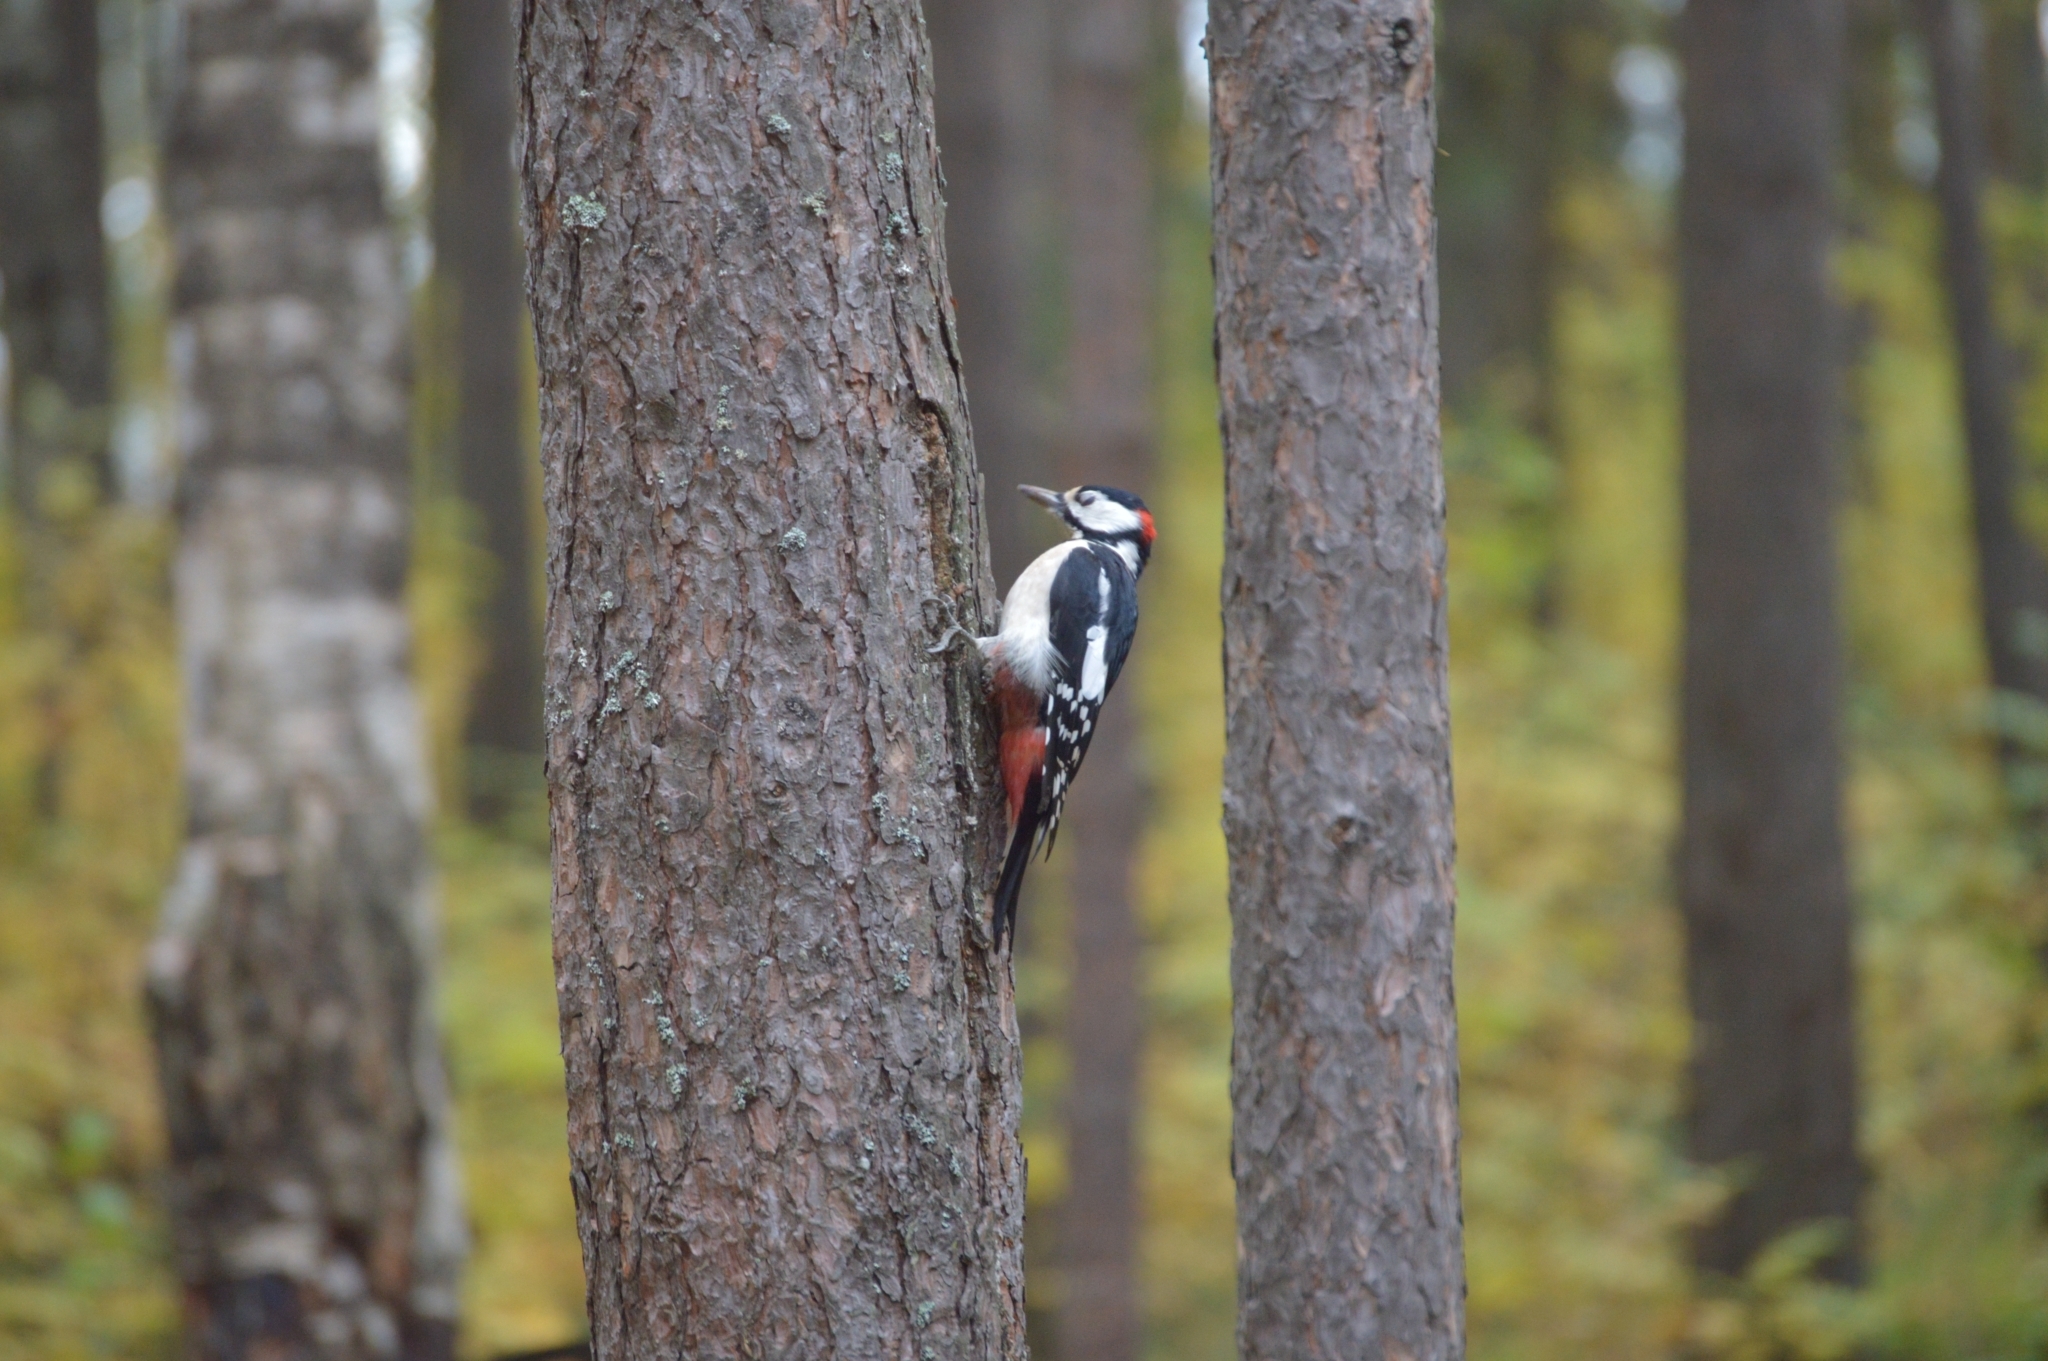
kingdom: Animalia
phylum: Chordata
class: Aves
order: Piciformes
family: Picidae
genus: Dendrocopos
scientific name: Dendrocopos major
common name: Great spotted woodpecker
